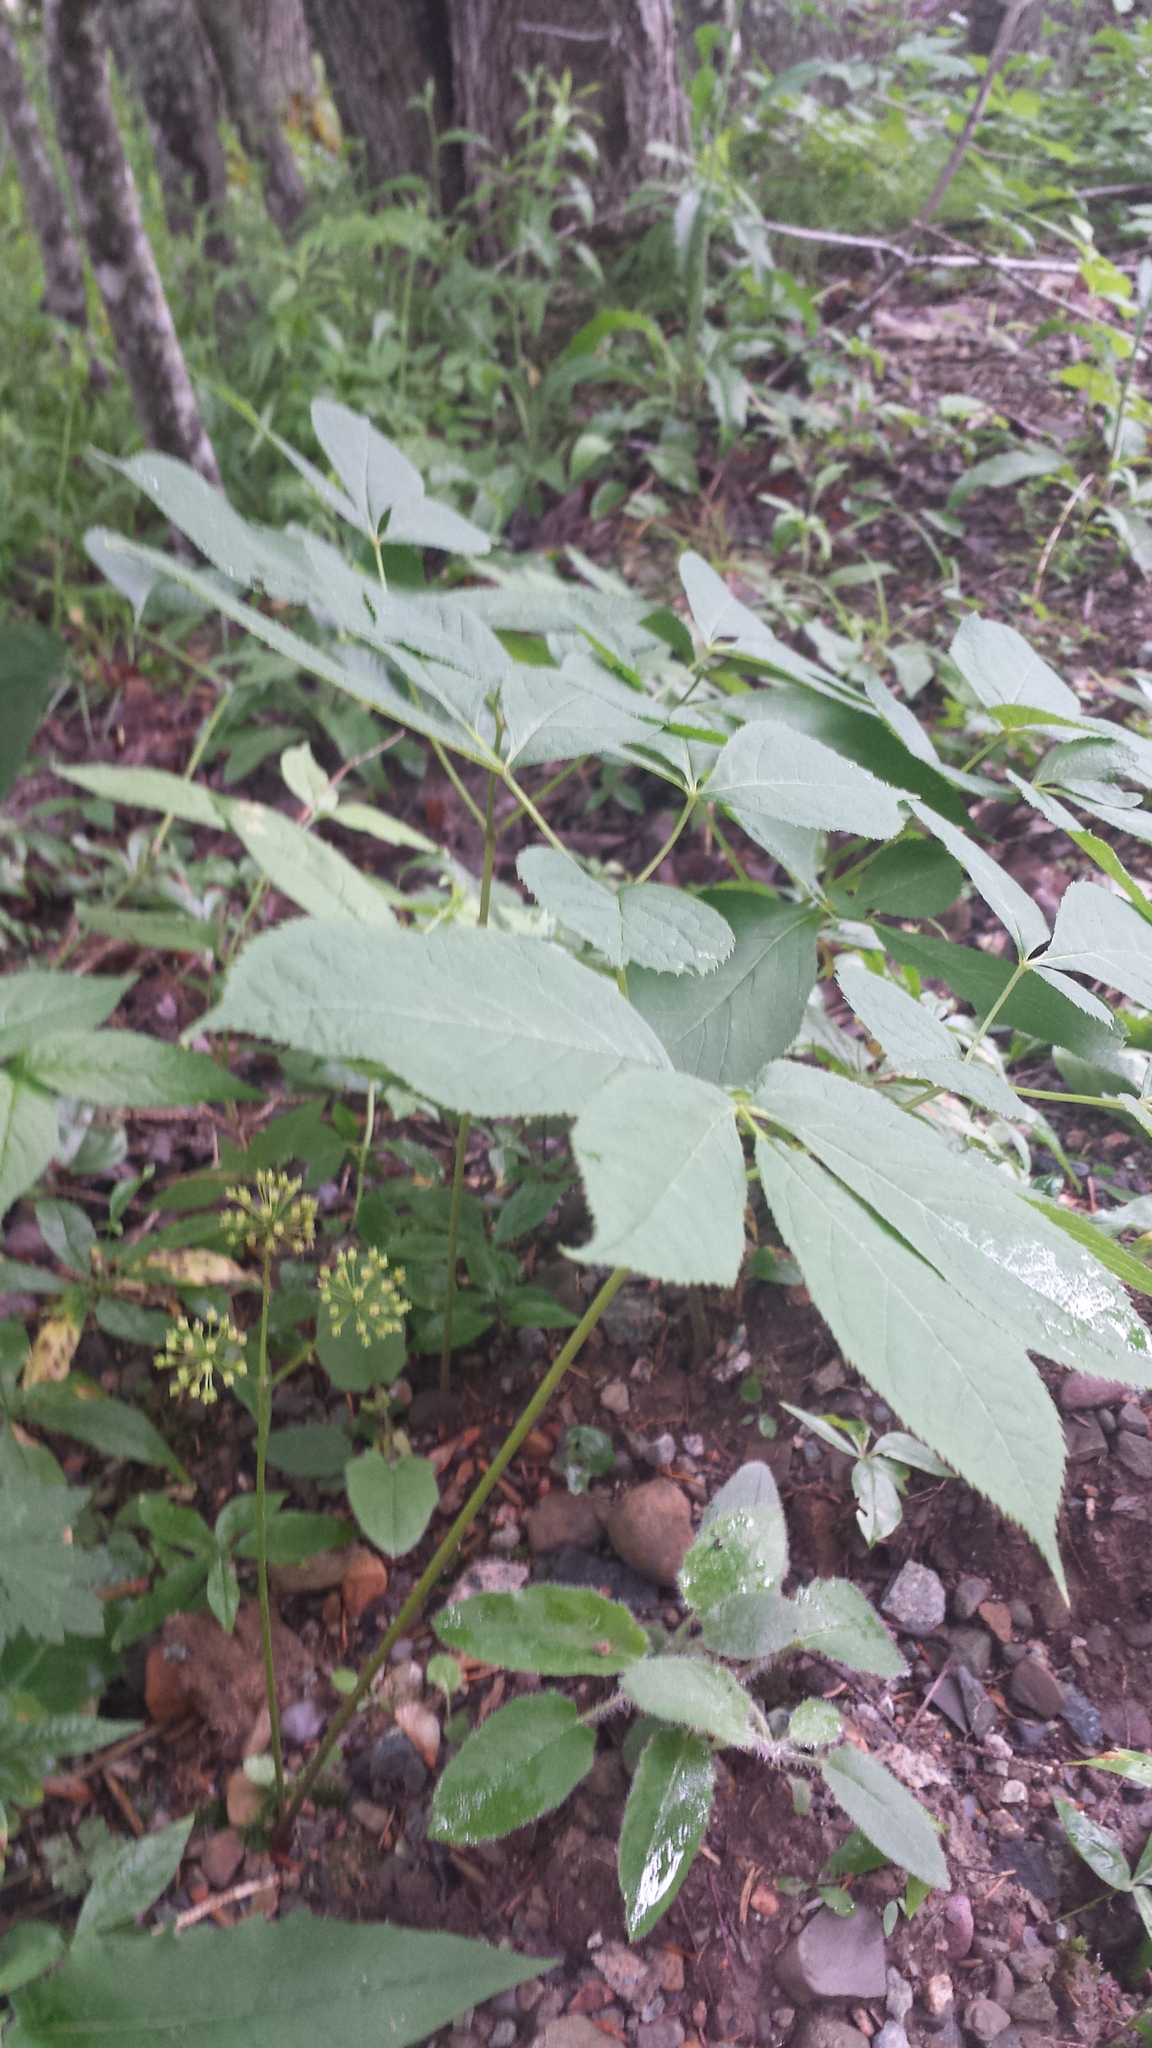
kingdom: Plantae
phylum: Tracheophyta
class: Magnoliopsida
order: Apiales
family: Araliaceae
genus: Aralia
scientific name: Aralia nudicaulis
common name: Wild sarsaparilla
